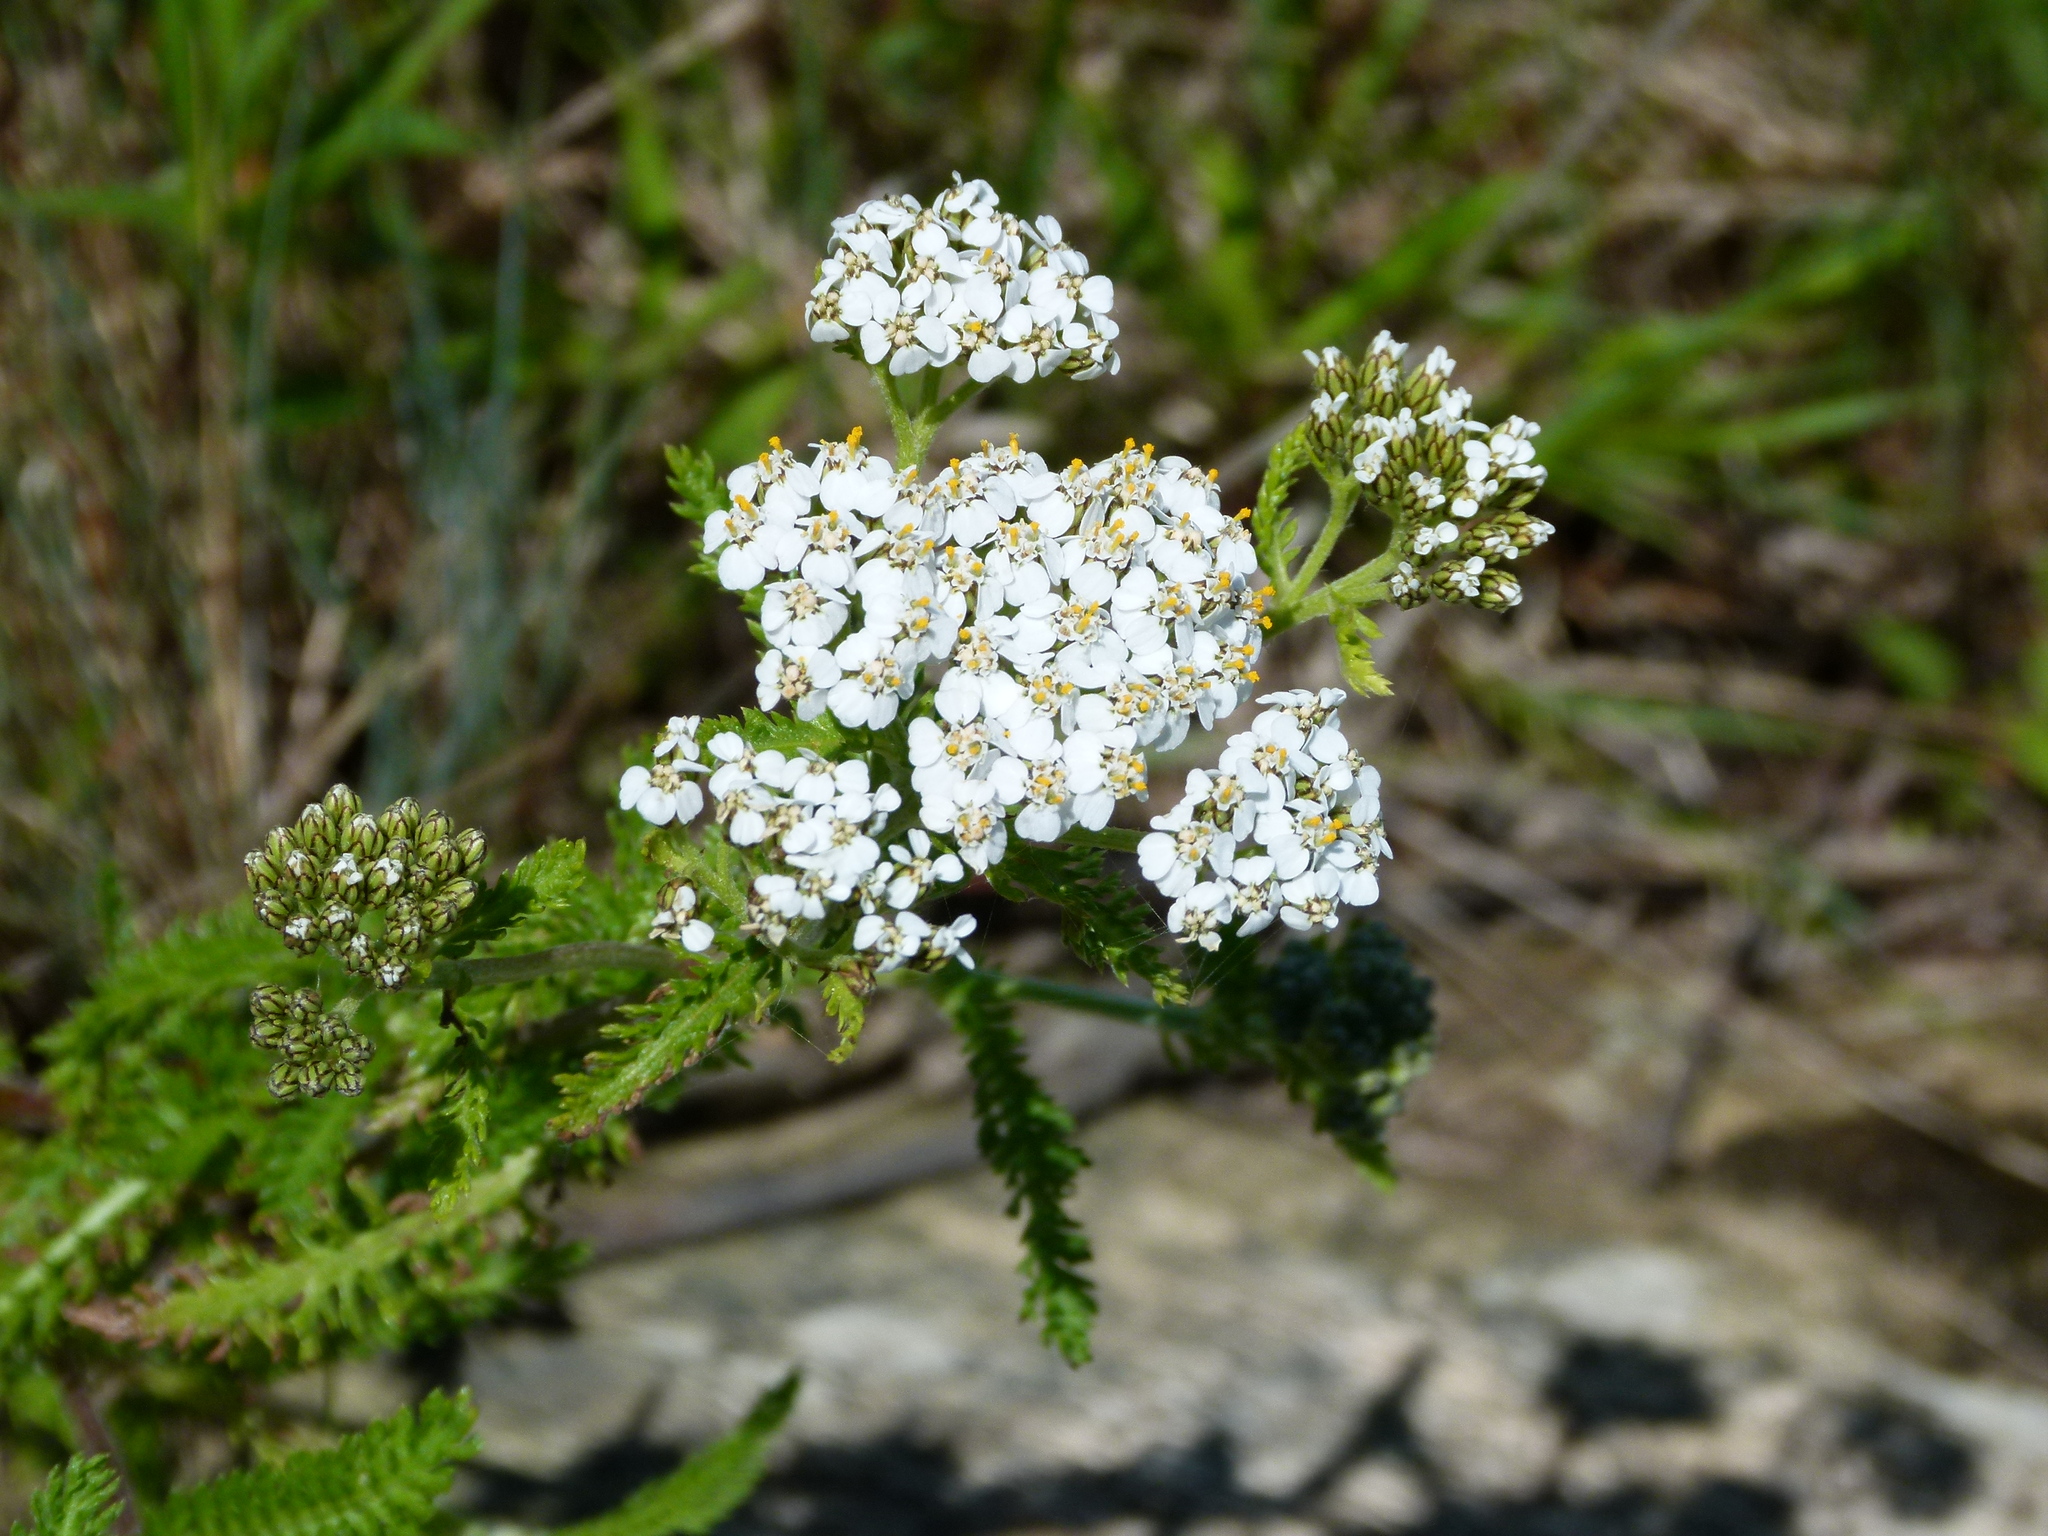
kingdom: Plantae
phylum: Tracheophyta
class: Magnoliopsida
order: Asterales
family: Asteraceae
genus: Achillea
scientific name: Achillea millefolium
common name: Yarrow
